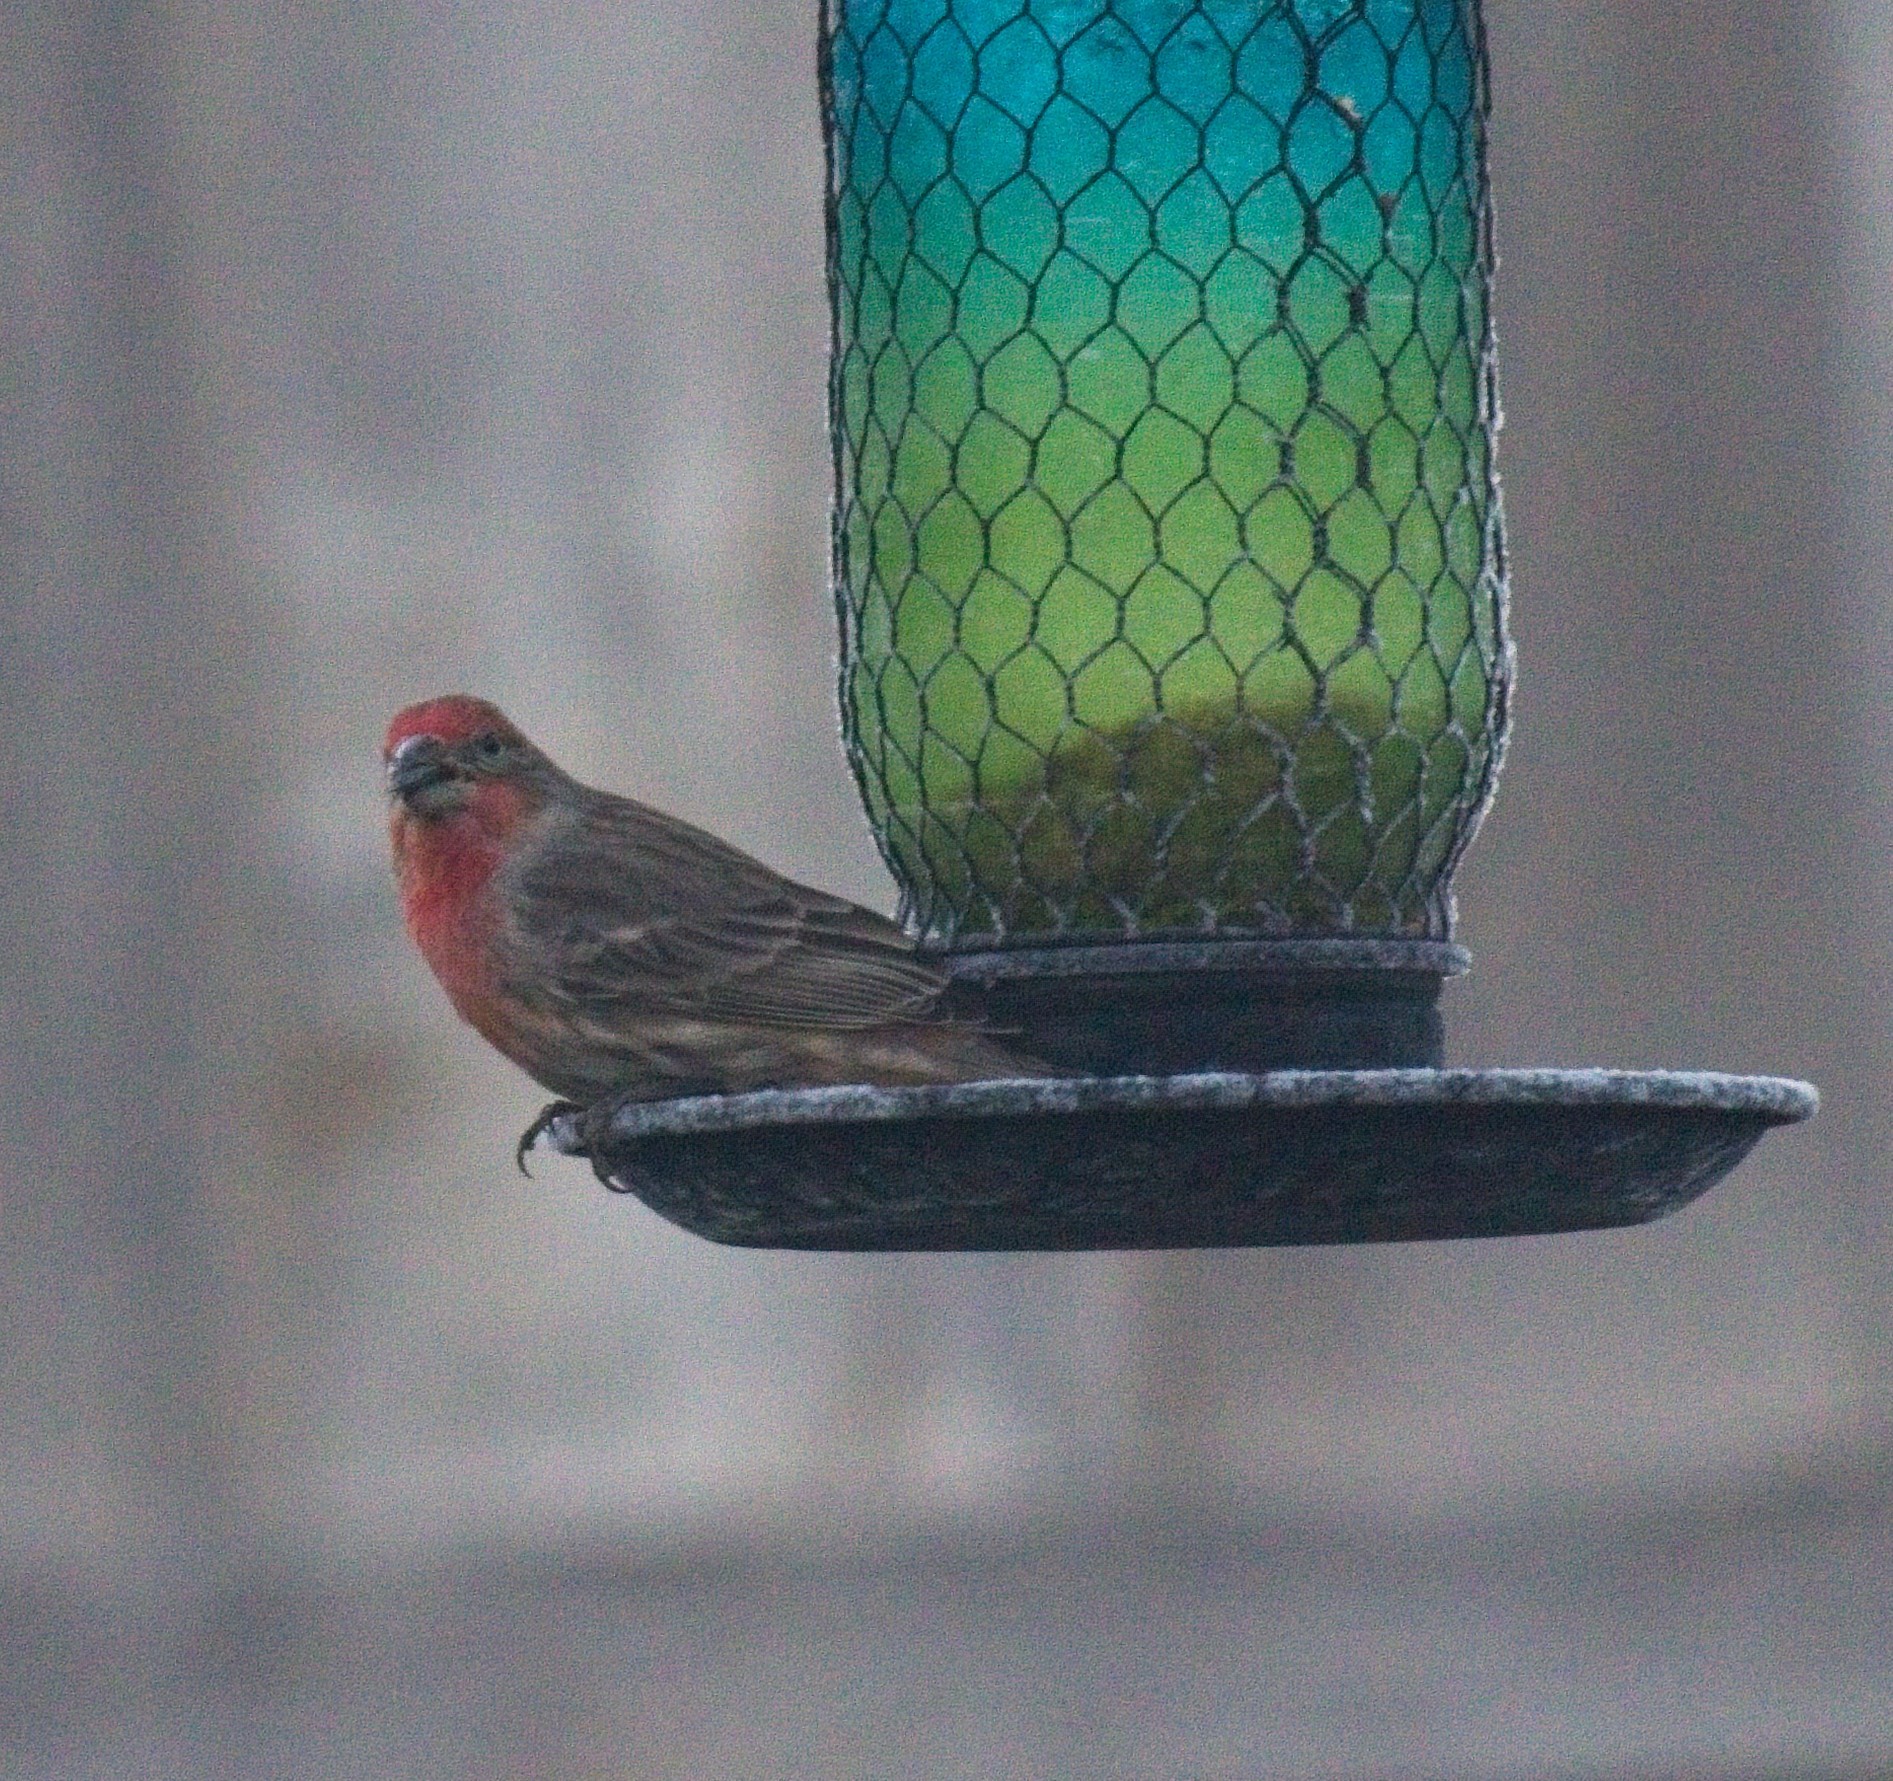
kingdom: Animalia
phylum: Chordata
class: Aves
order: Passeriformes
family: Fringillidae
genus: Haemorhous
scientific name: Haemorhous mexicanus
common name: House finch
